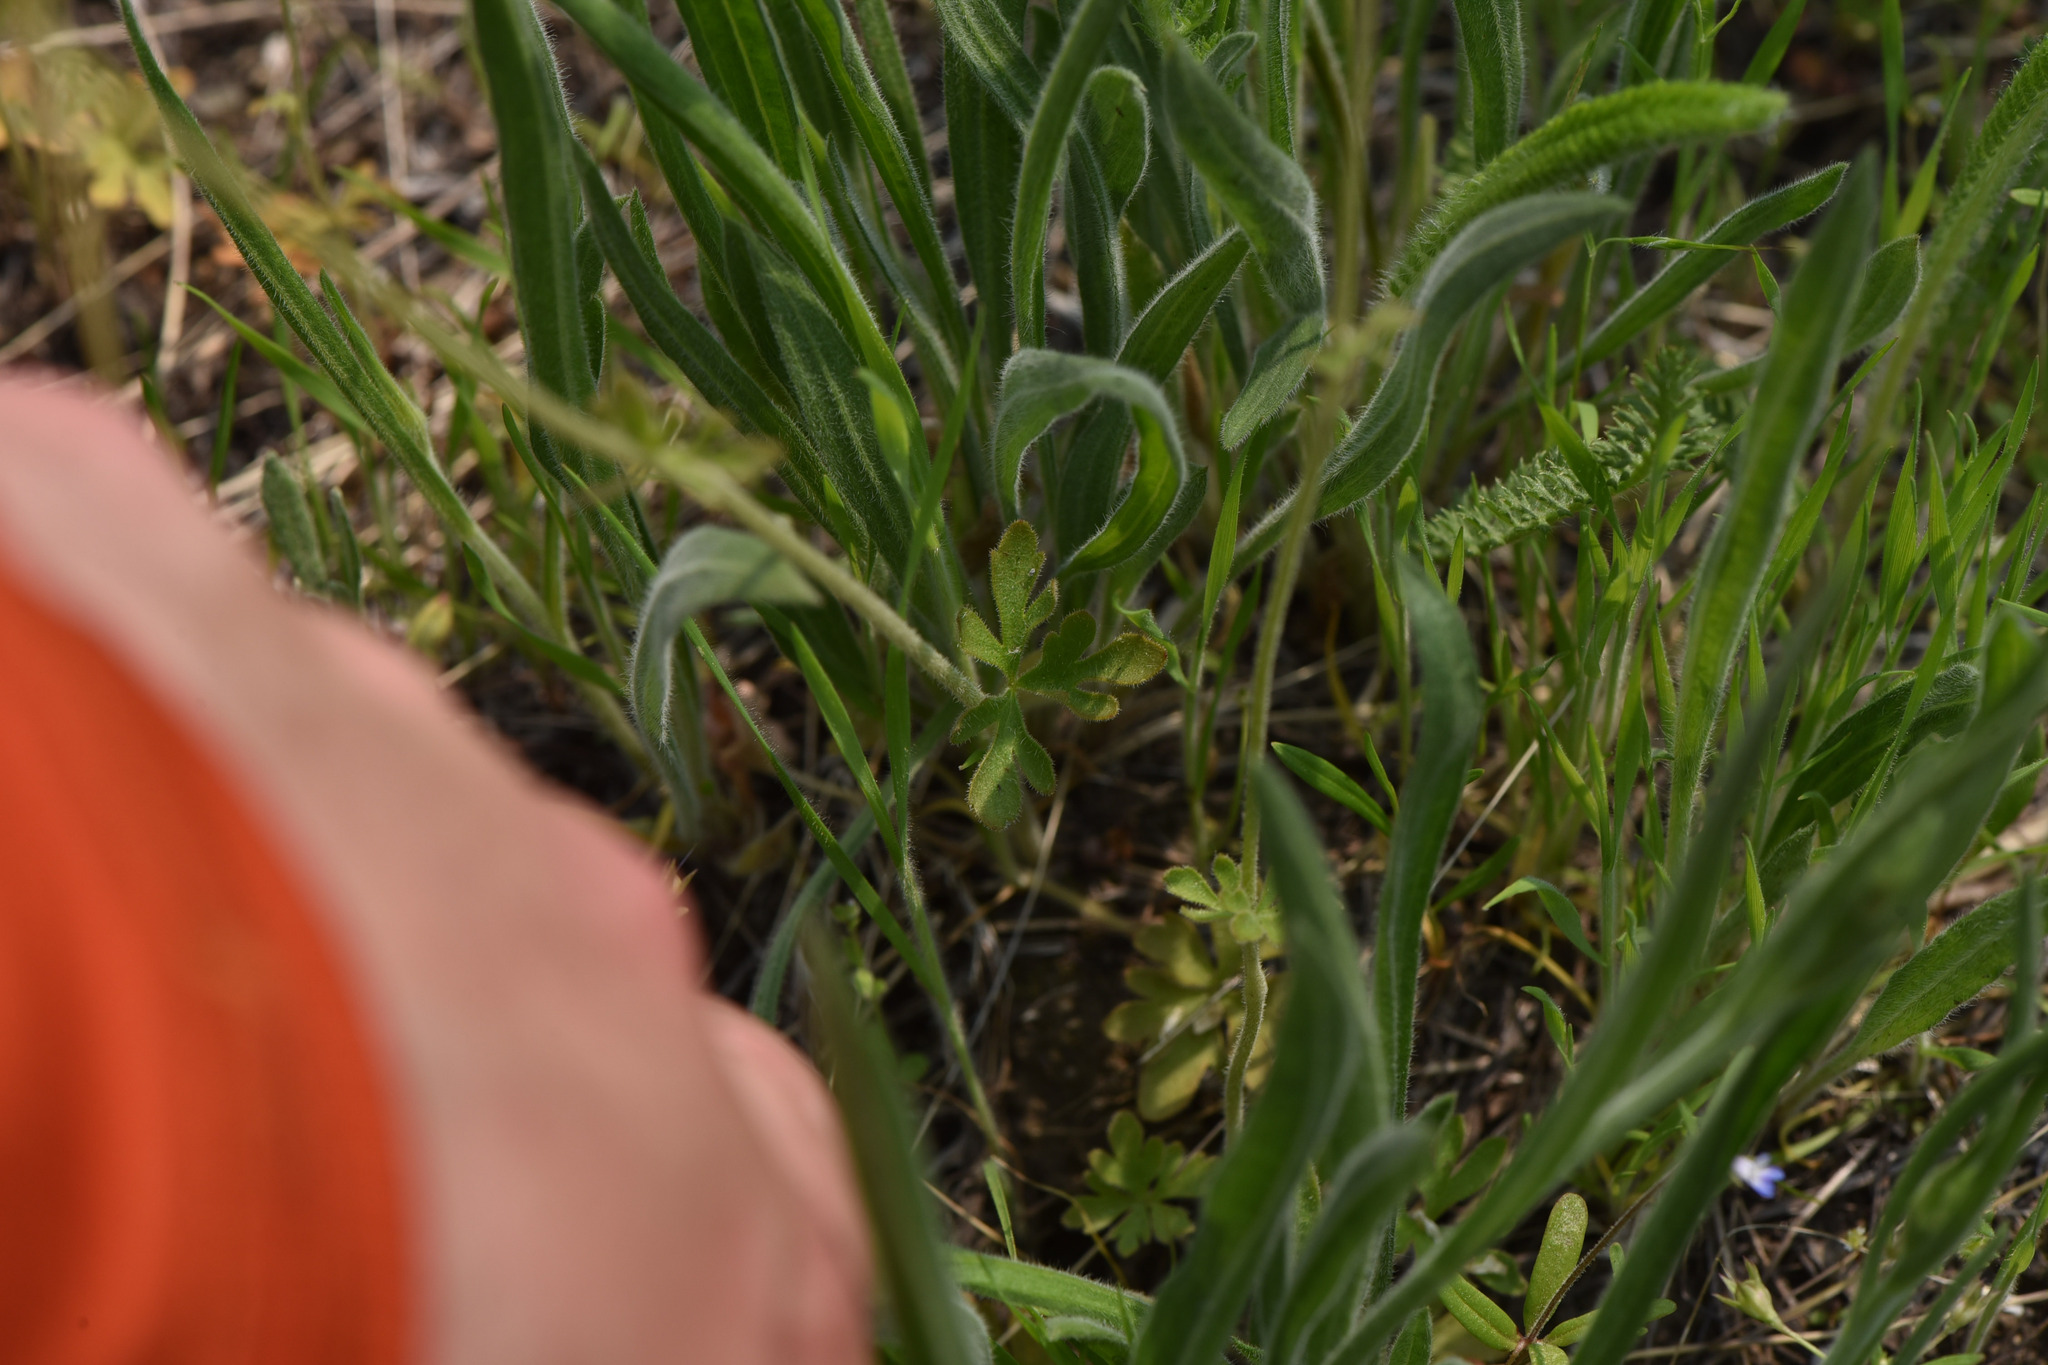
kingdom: Plantae
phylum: Tracheophyta
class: Magnoliopsida
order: Saxifragales
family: Saxifragaceae
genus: Lithophragma
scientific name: Lithophragma parviflorum
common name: Small-flowered fringe-cup
